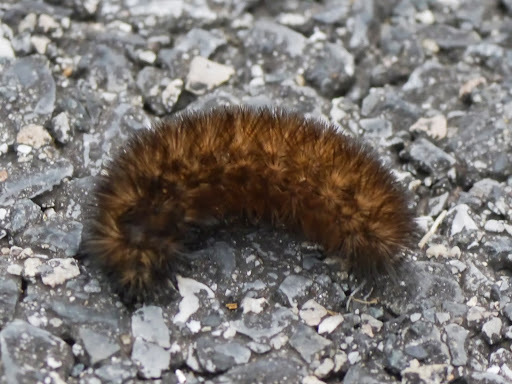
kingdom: Animalia
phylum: Arthropoda
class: Insecta
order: Lepidoptera
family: Erebidae
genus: Estigmene
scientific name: Estigmene acrea
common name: Salt marsh moth
